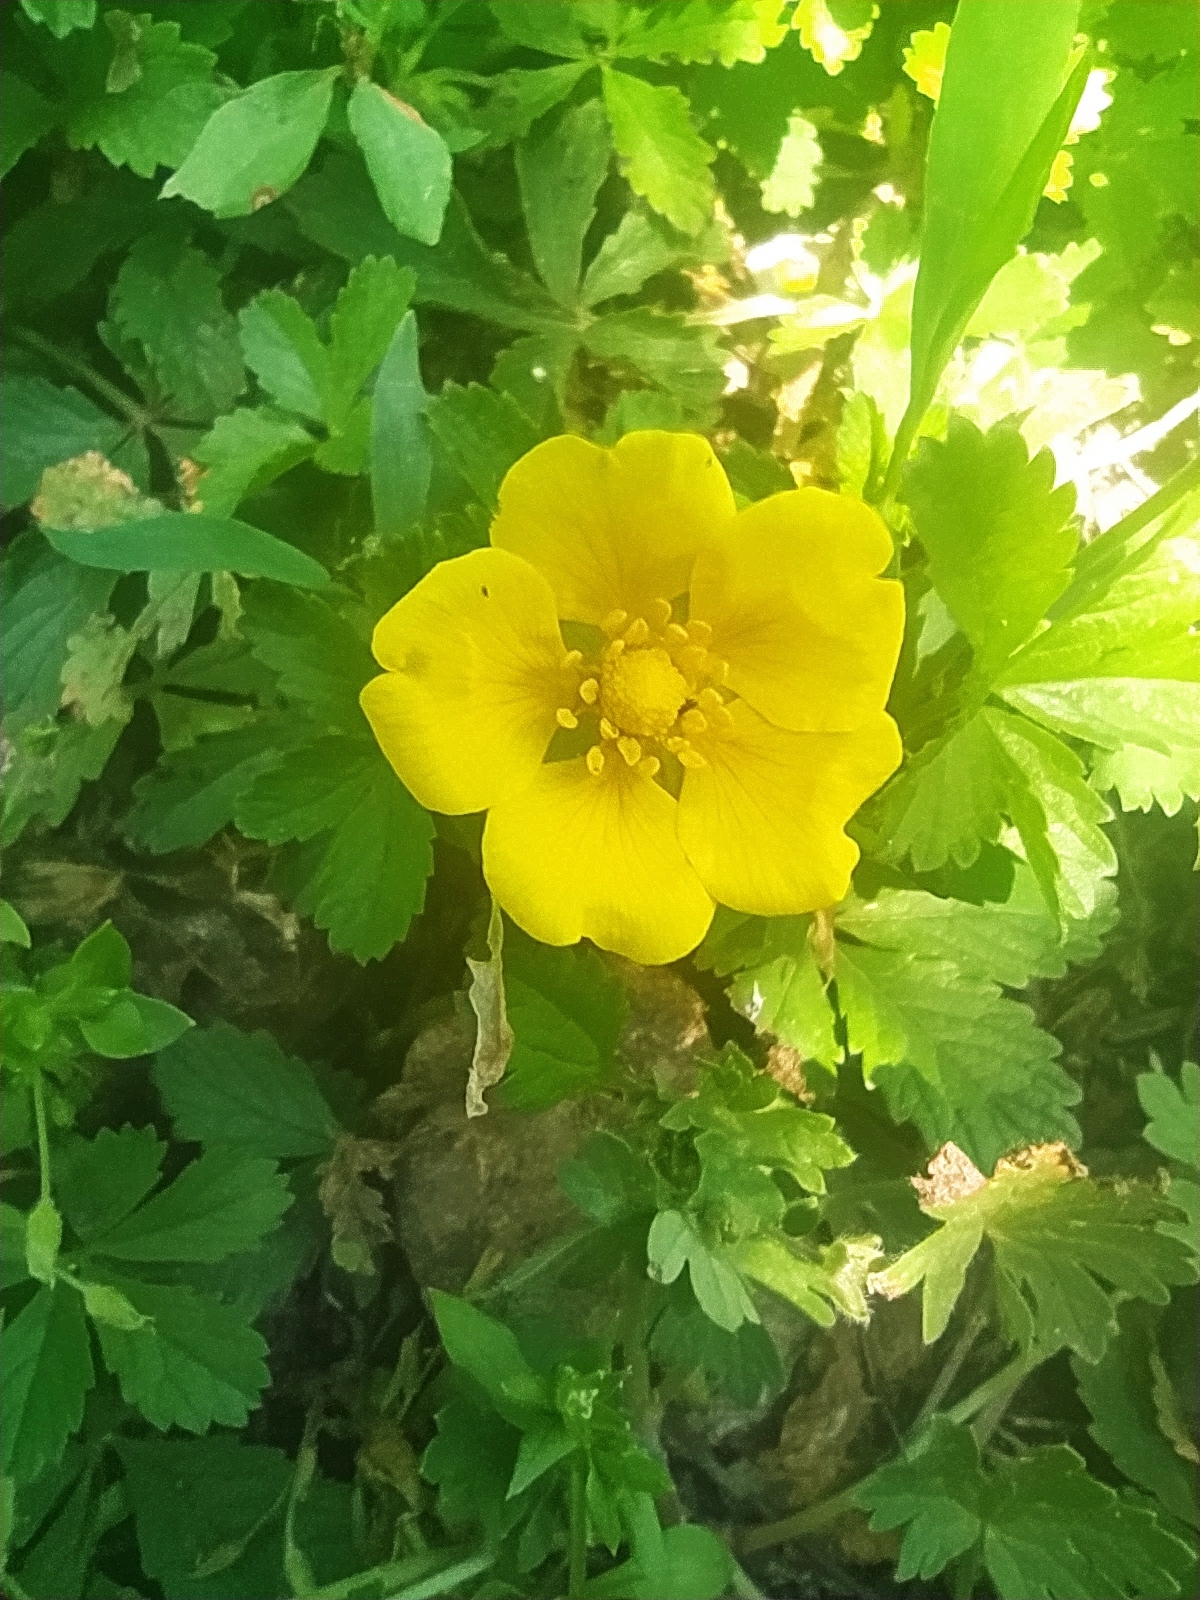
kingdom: Plantae
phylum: Tracheophyta
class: Magnoliopsida
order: Rosales
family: Rosaceae
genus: Potentilla
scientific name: Potentilla reptans
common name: Creeping cinquefoil
